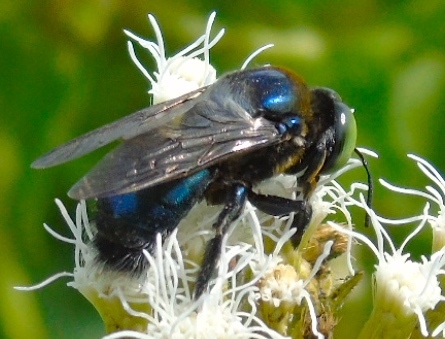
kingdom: Animalia
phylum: Arthropoda
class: Insecta
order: Hymenoptera
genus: Schonnherria
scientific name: Schonnherria
